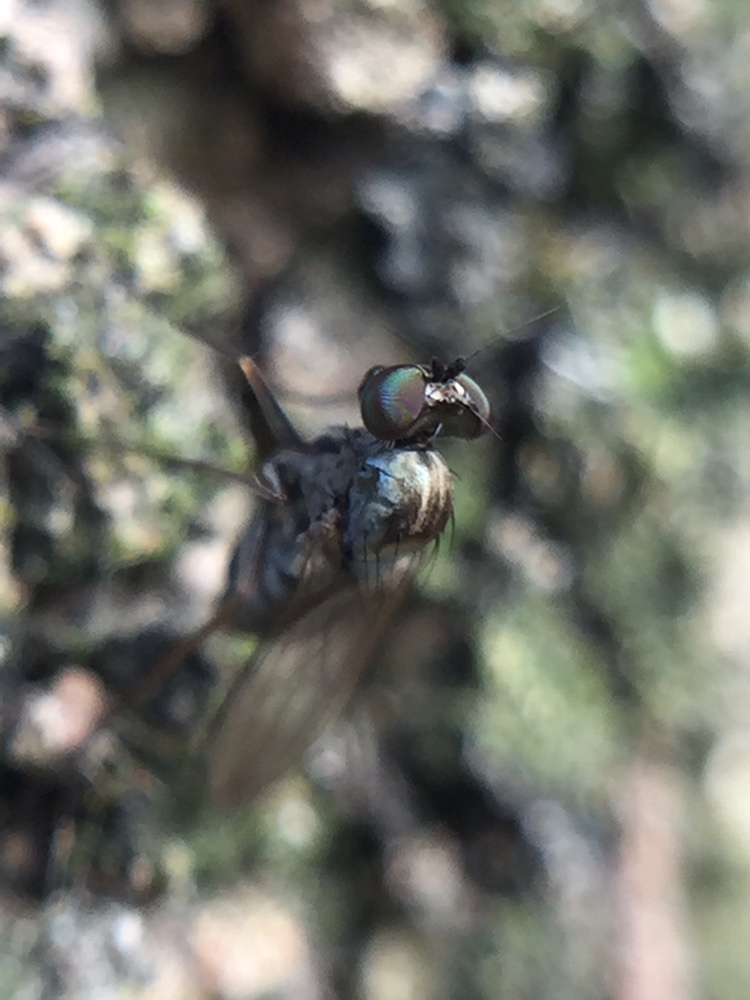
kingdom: Animalia
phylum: Arthropoda
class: Insecta
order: Diptera
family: Dolichopodidae
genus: Medetera
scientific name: Medetera grisescens
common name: Fly
